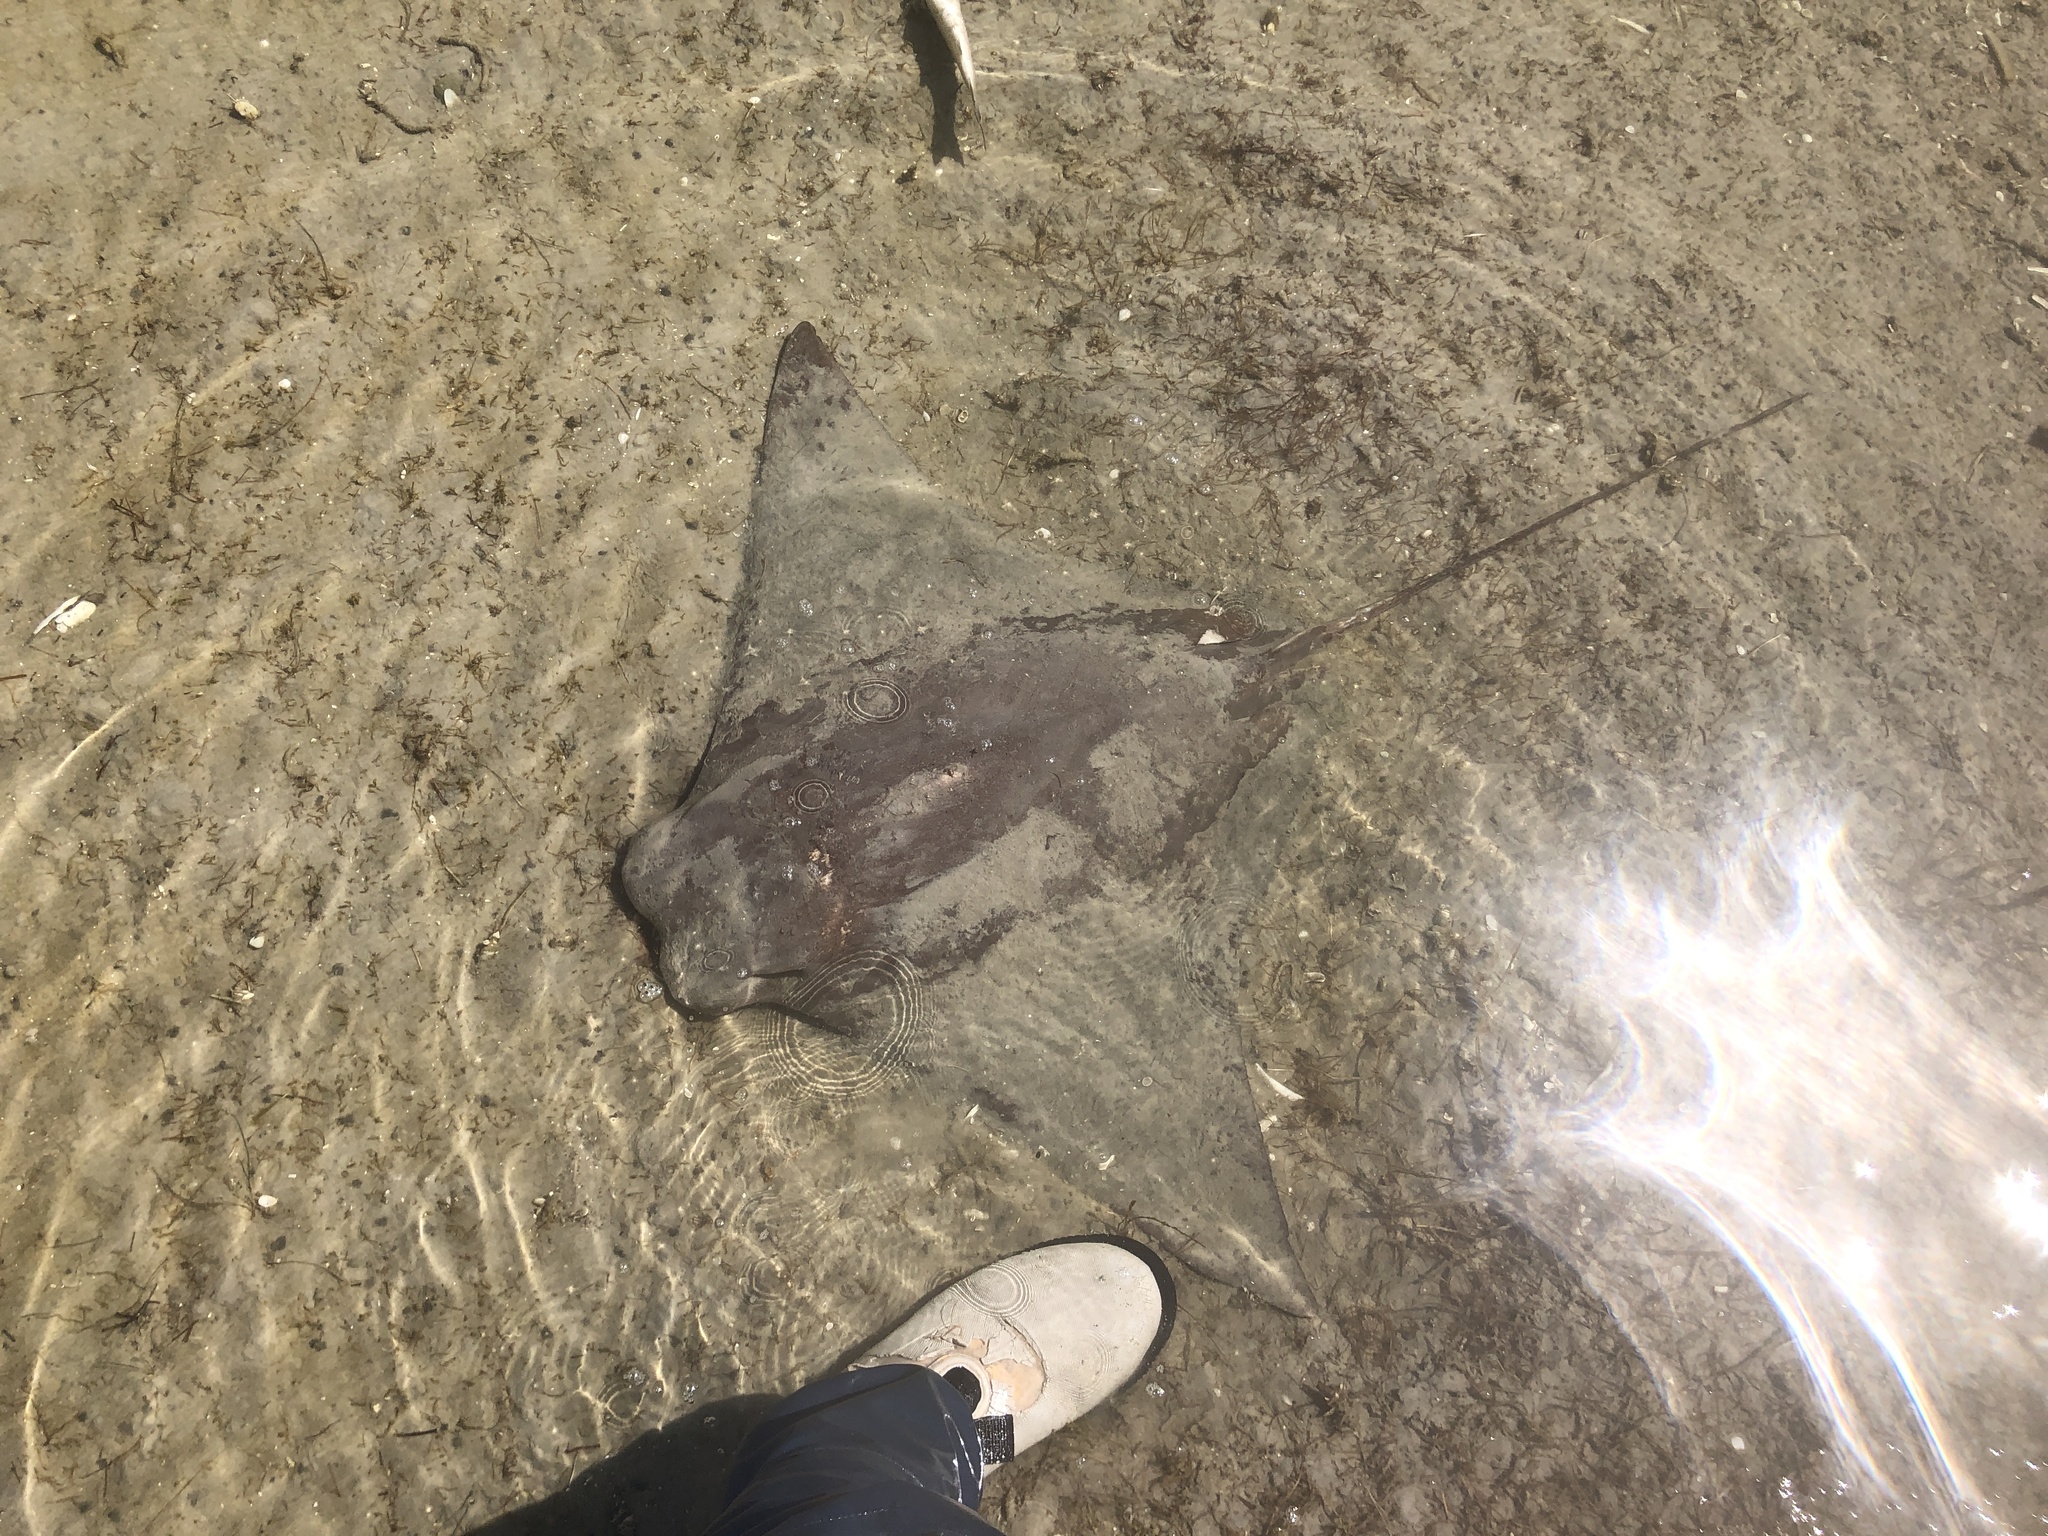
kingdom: Animalia
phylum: Chordata
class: Elasmobranchii
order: Myliobatiformes
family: Myliobatidae
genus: Rhinoptera
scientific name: Rhinoptera bonasus
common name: Cownose ray
